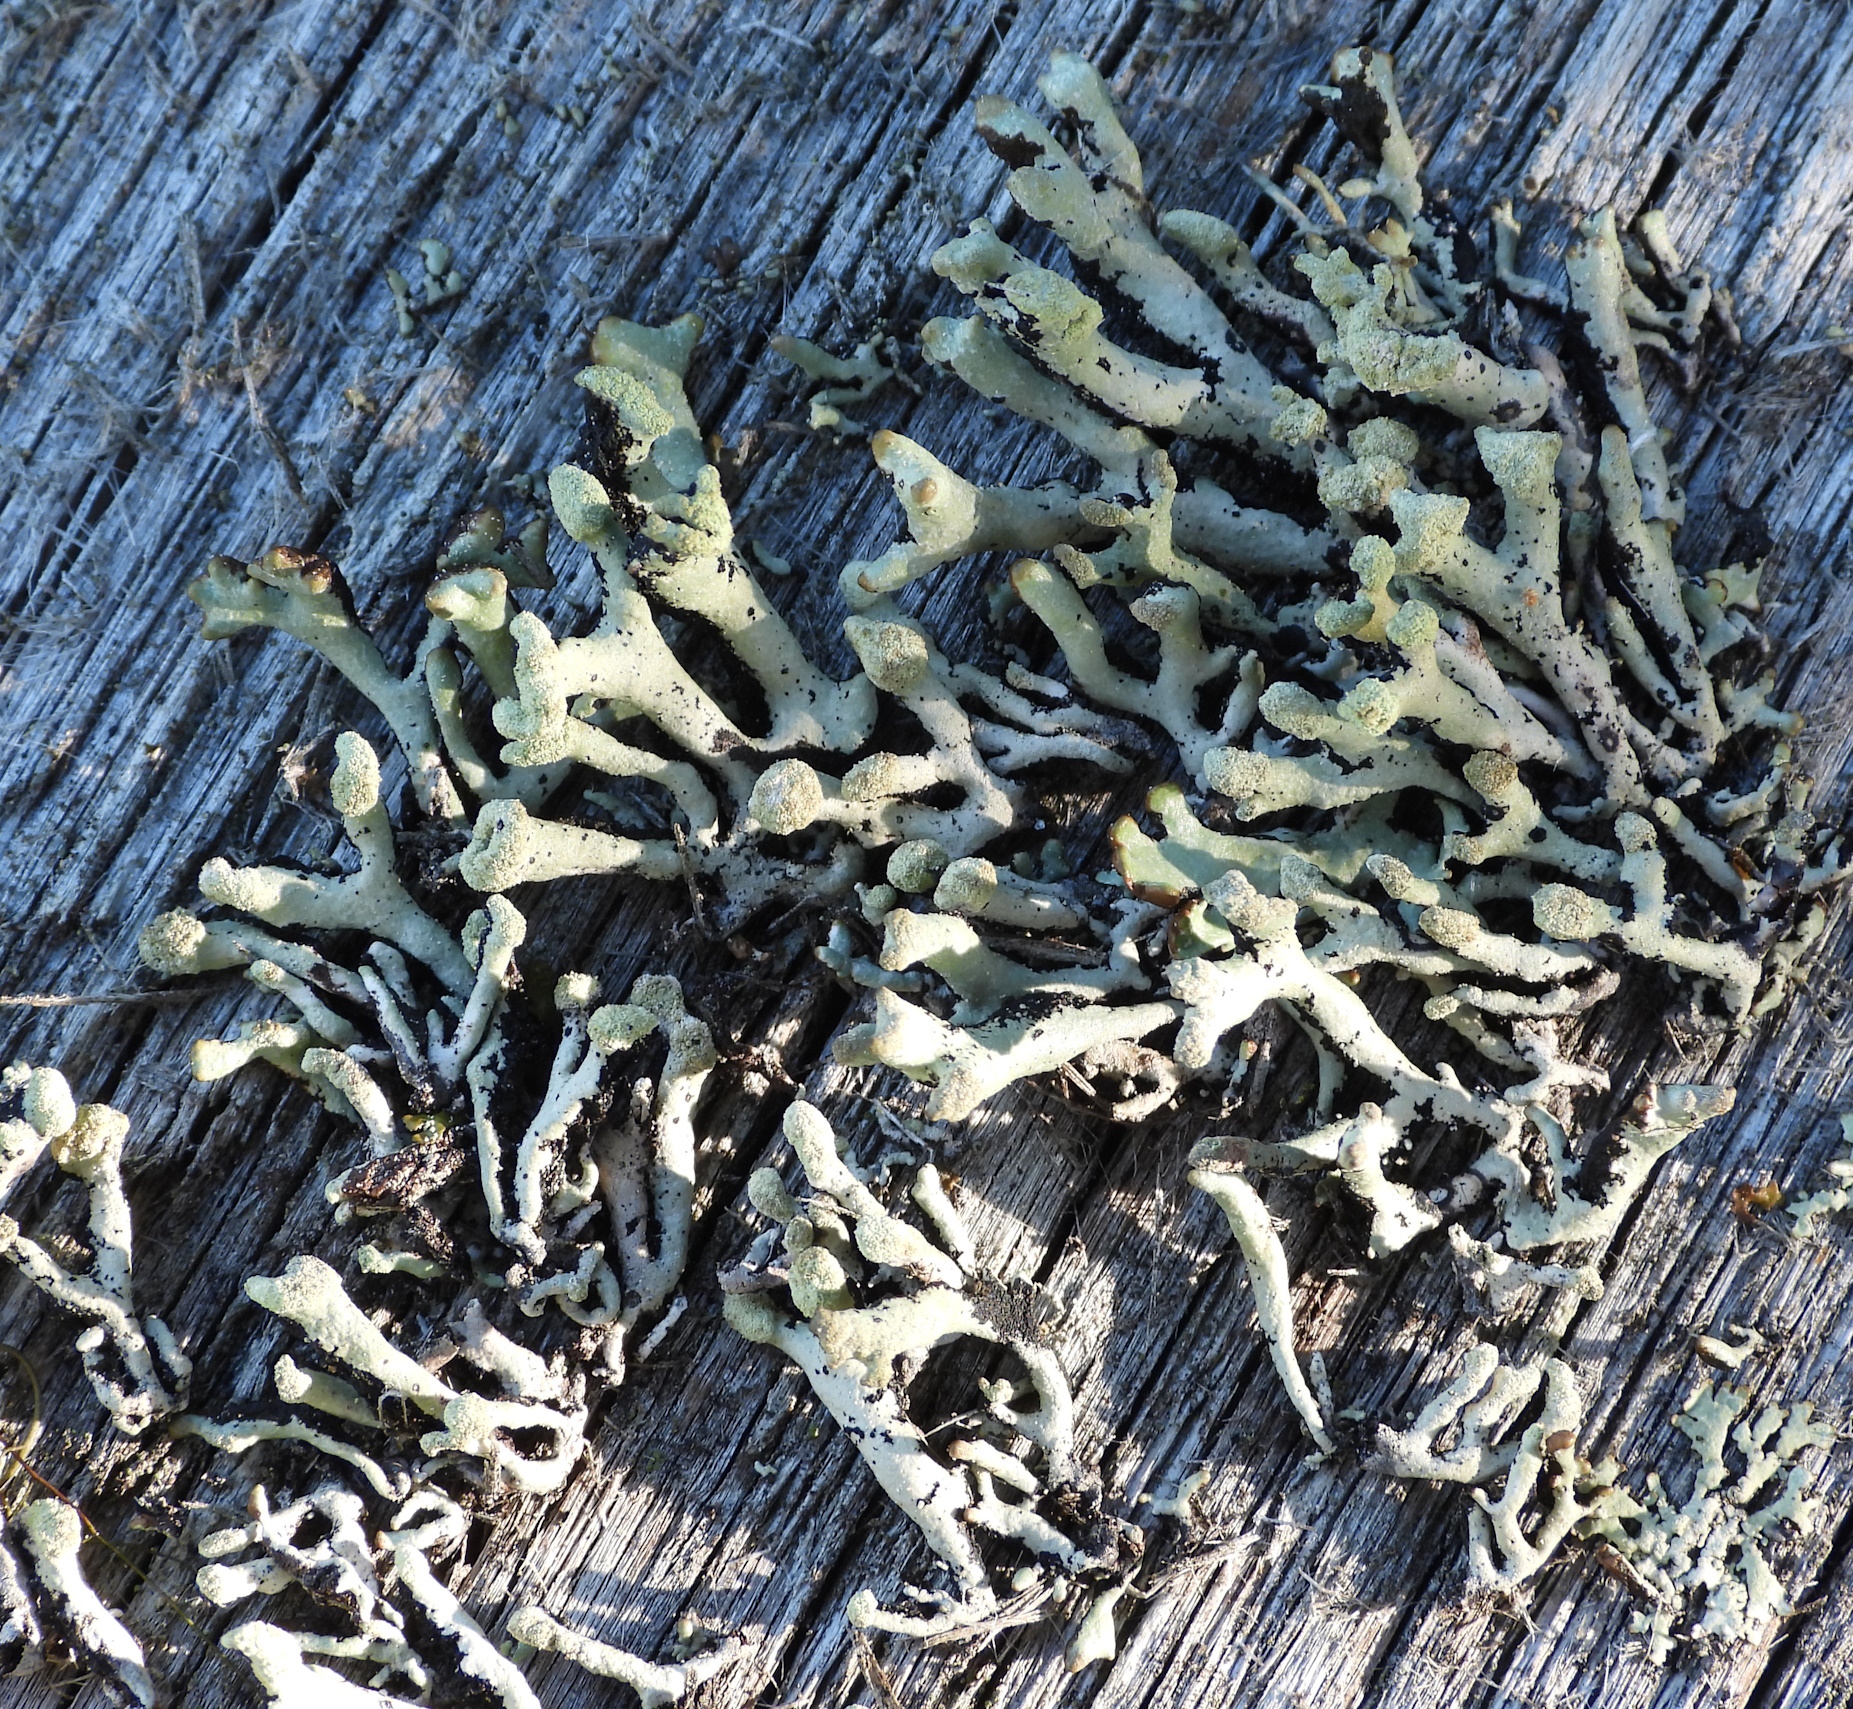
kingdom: Fungi
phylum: Ascomycota
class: Lecanoromycetes
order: Lecanorales
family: Parmeliaceae
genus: Hypogymnia
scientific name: Hypogymnia tubulosa
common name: Powder-headed tube lichen
